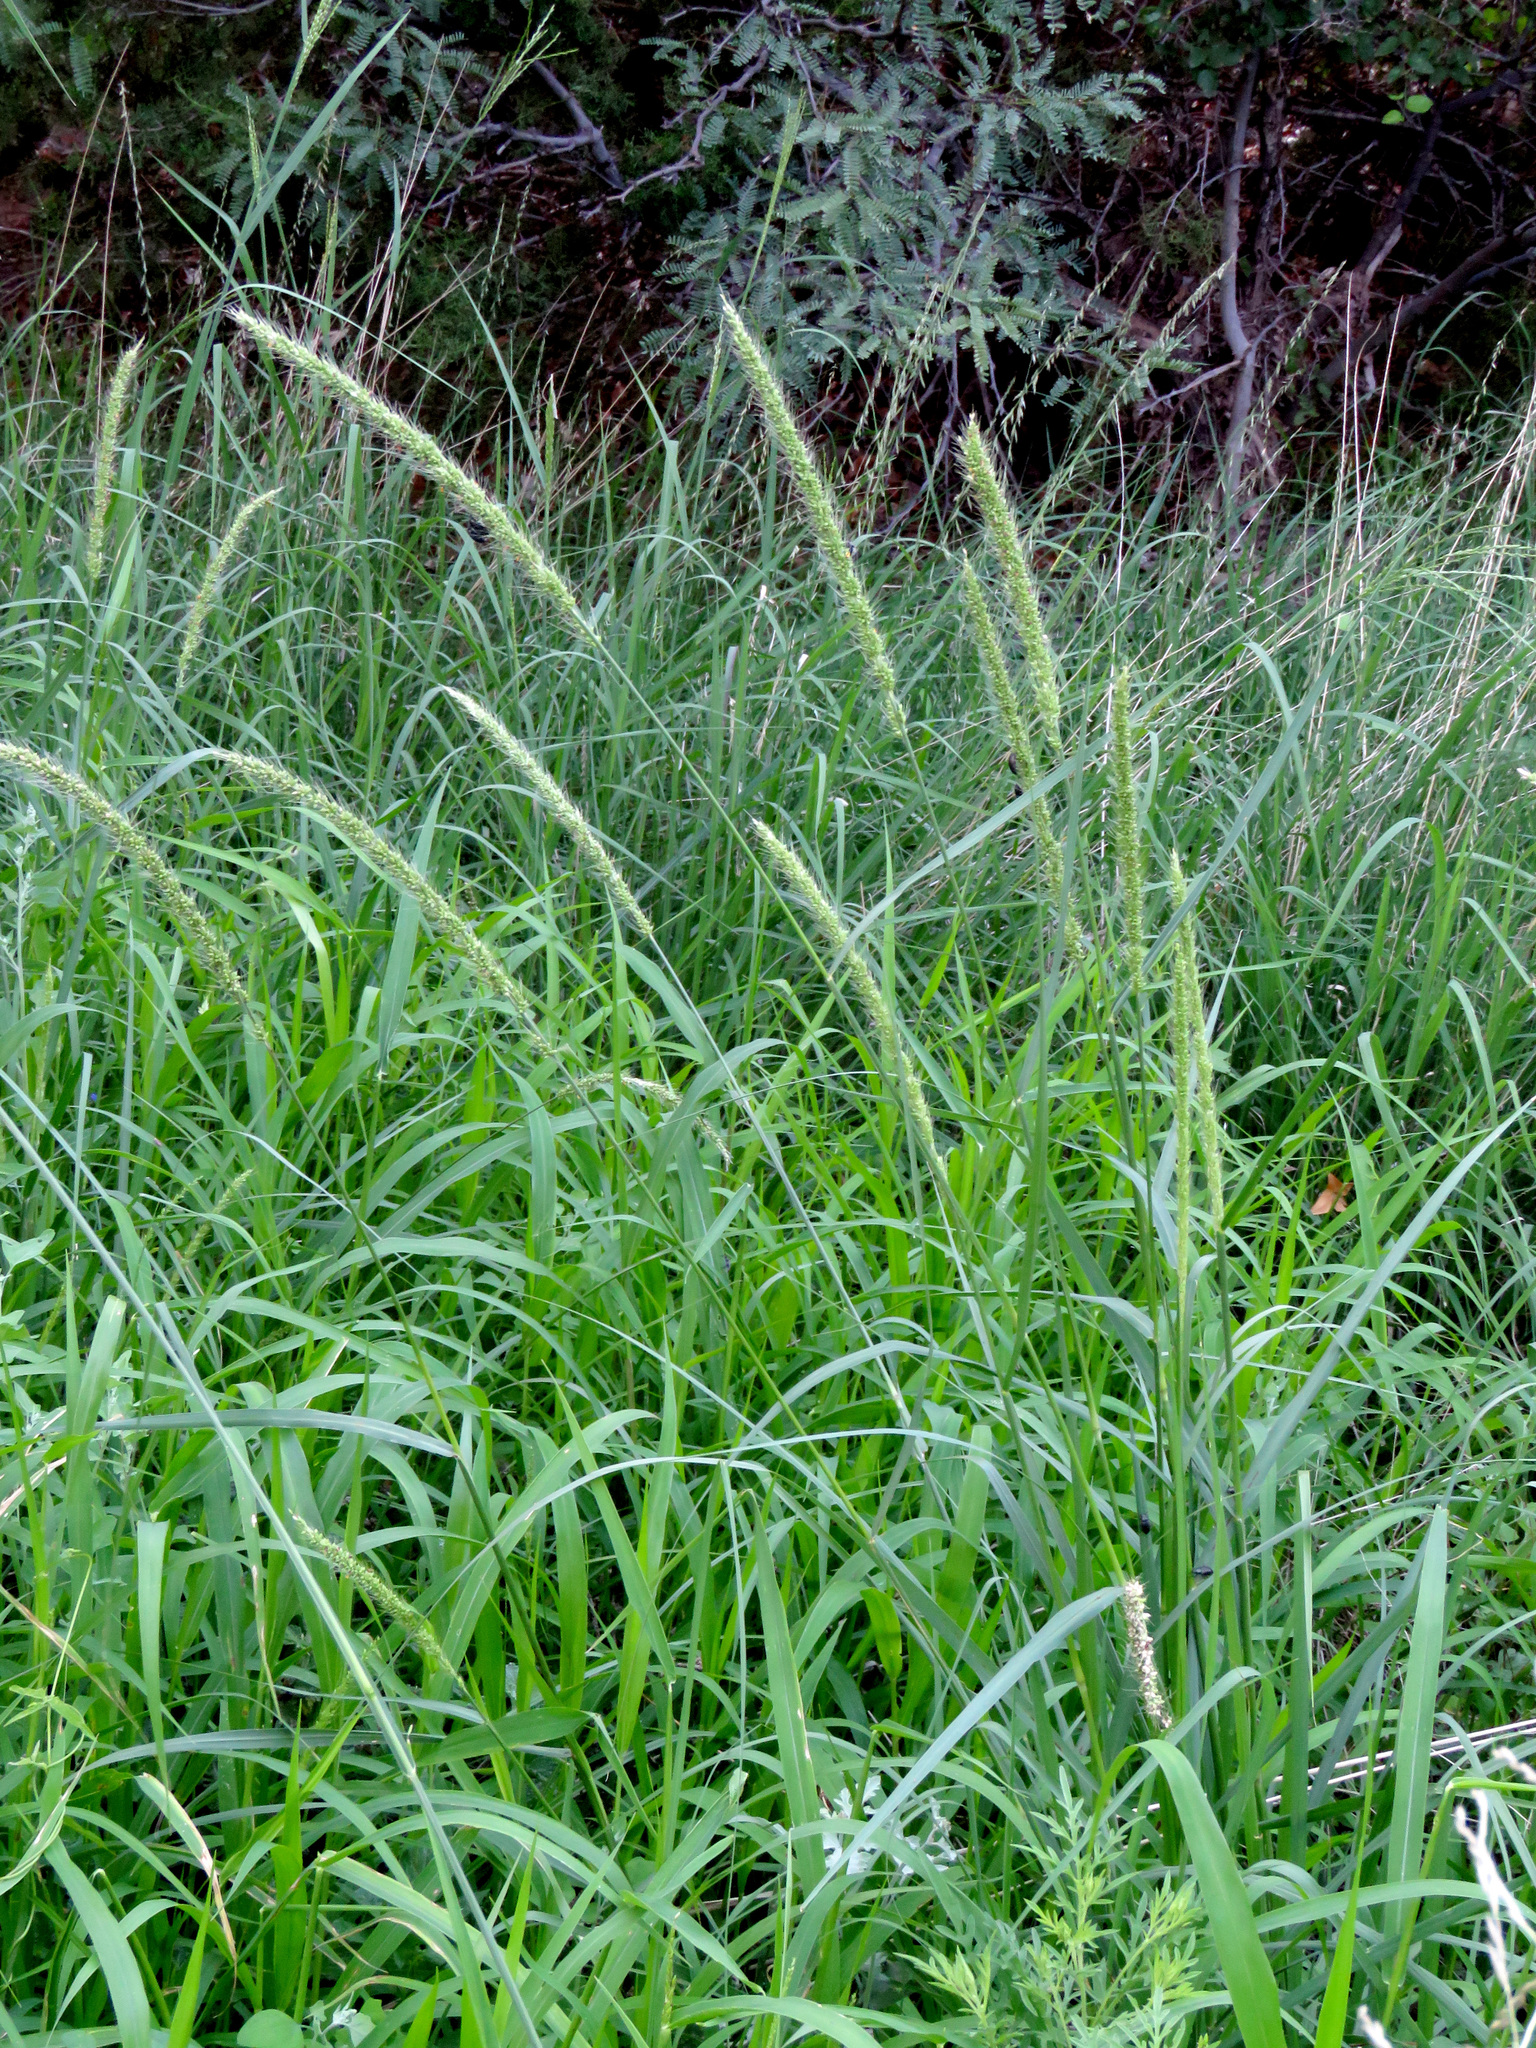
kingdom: Plantae
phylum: Tracheophyta
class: Liliopsida
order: Poales
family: Poaceae
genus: Setaria
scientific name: Setaria leucopila
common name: Plains bristle grass
